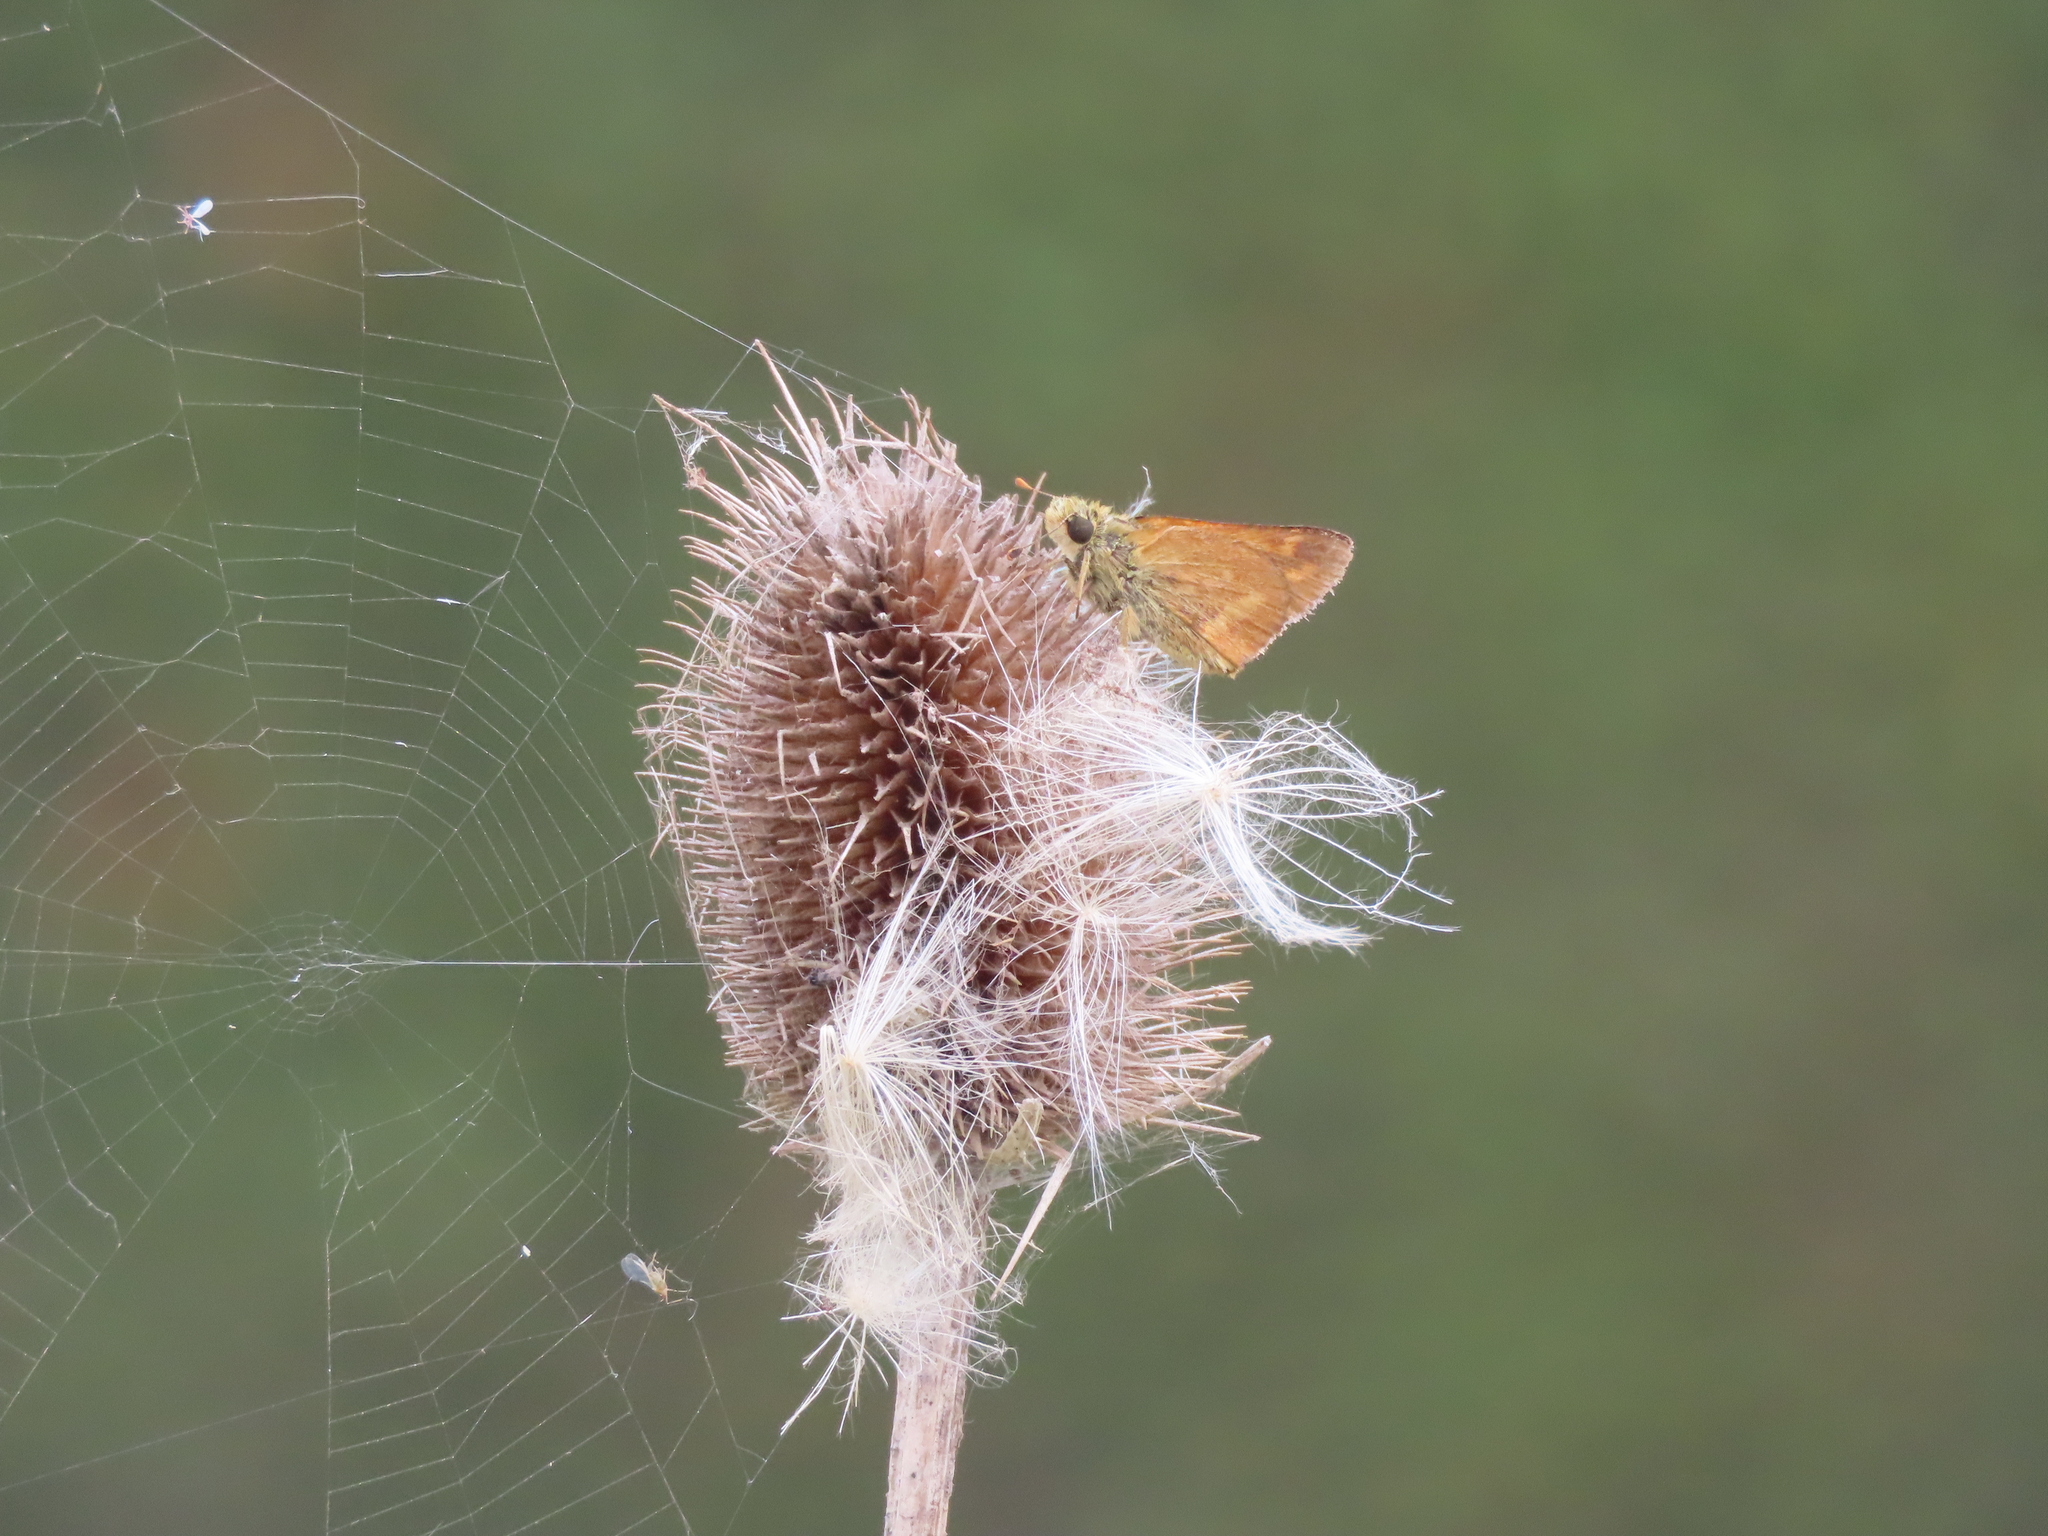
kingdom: Animalia
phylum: Arthropoda
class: Insecta
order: Lepidoptera
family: Hesperiidae
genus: Ochlodes
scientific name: Ochlodes sylvanoides
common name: Woodland skipper
